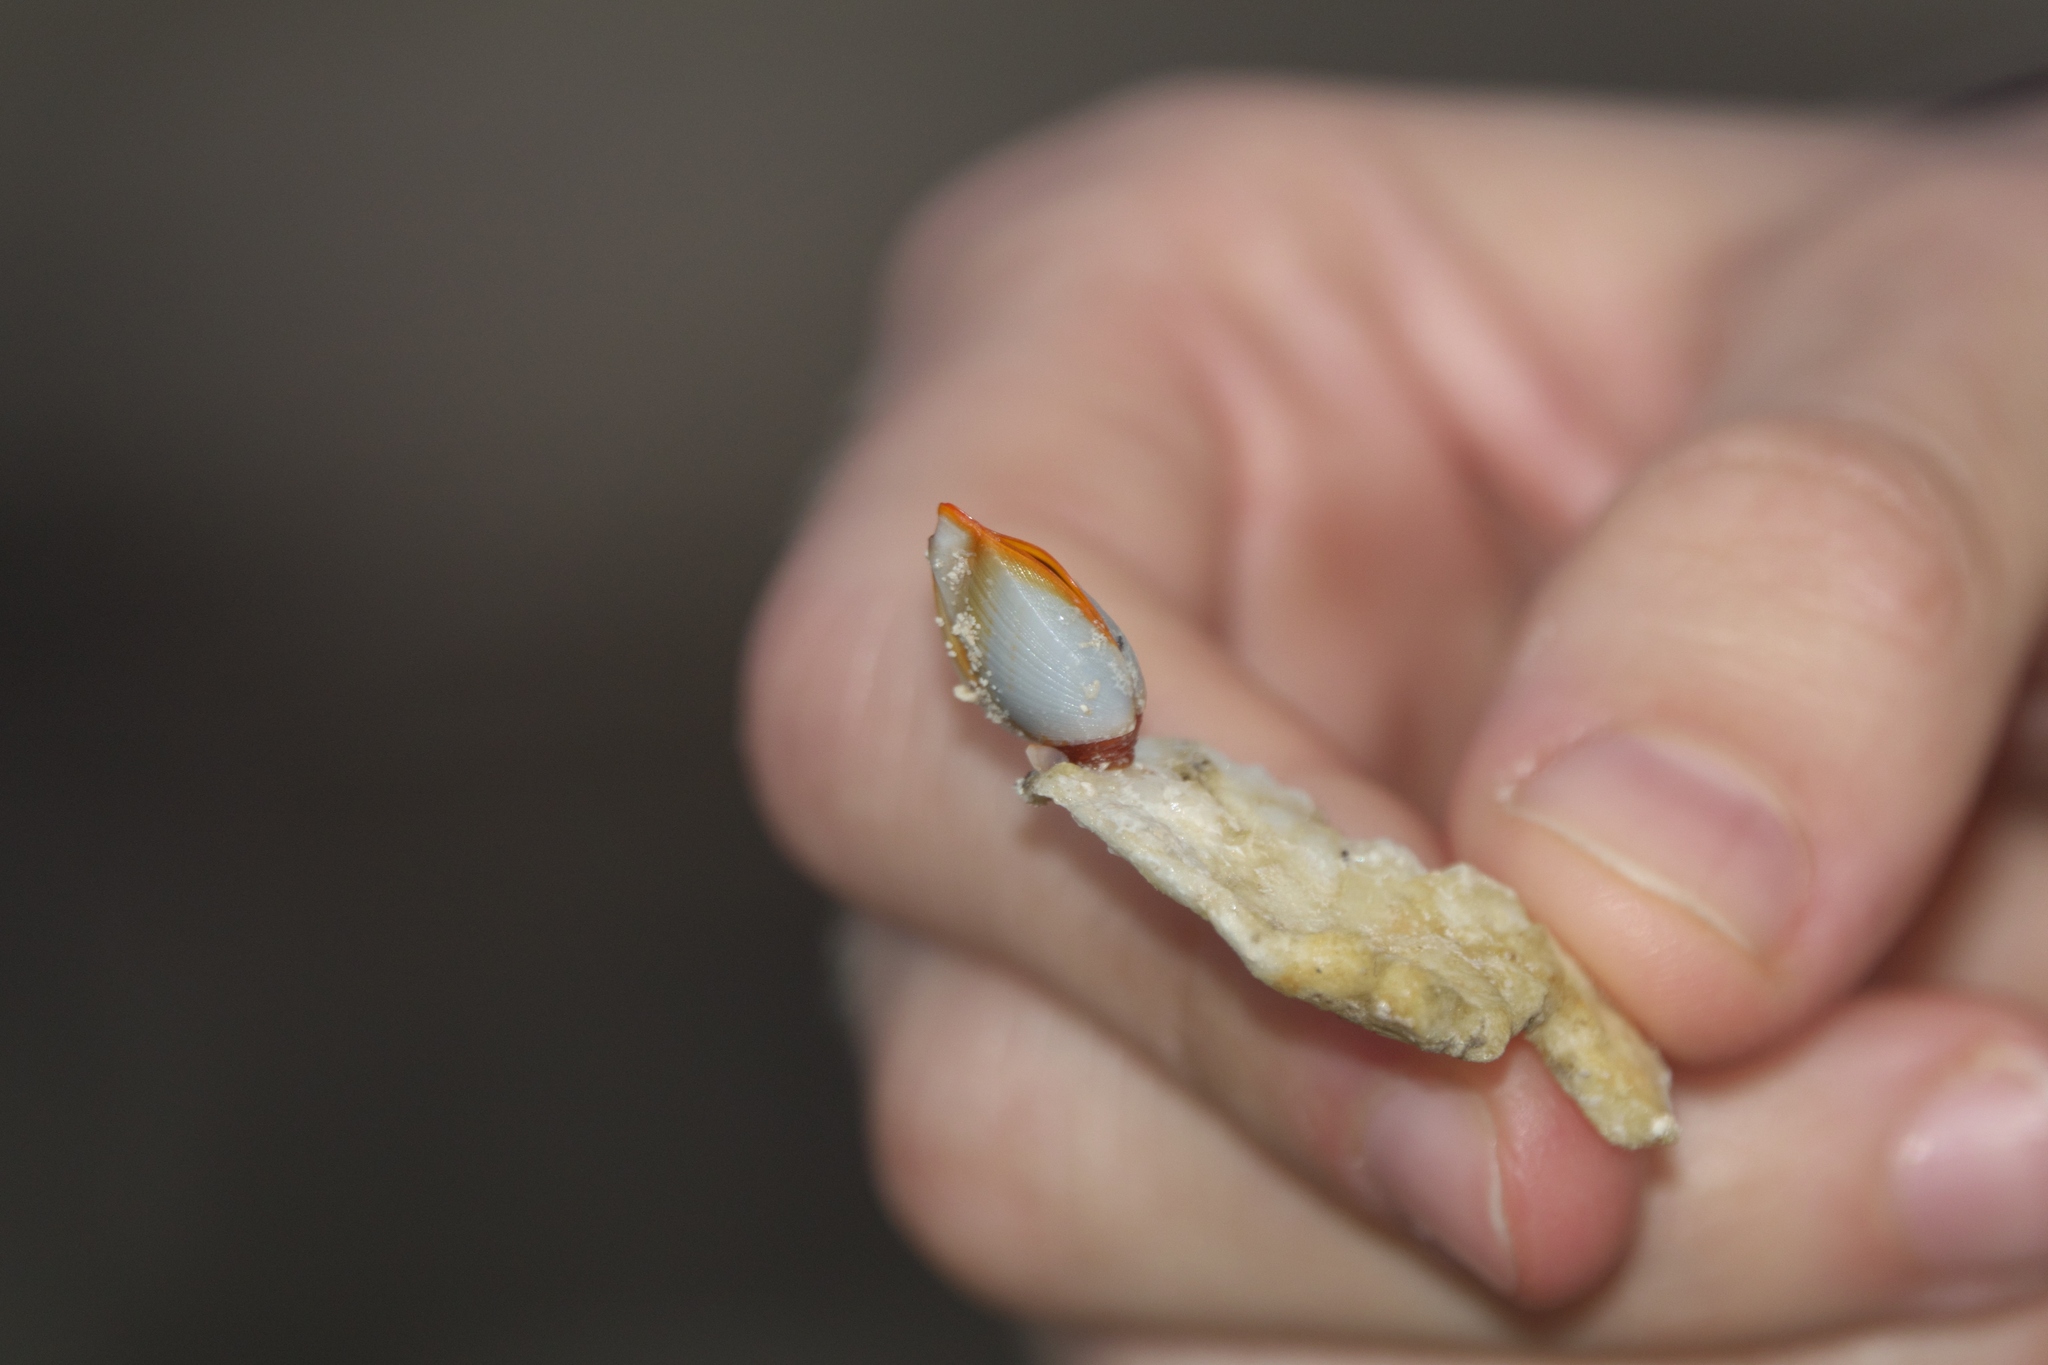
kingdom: Animalia
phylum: Arthropoda
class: Maxillopoda
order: Pedunculata
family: Lepadidae
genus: Lepas
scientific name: Lepas anserifera
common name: Goose barnacle
